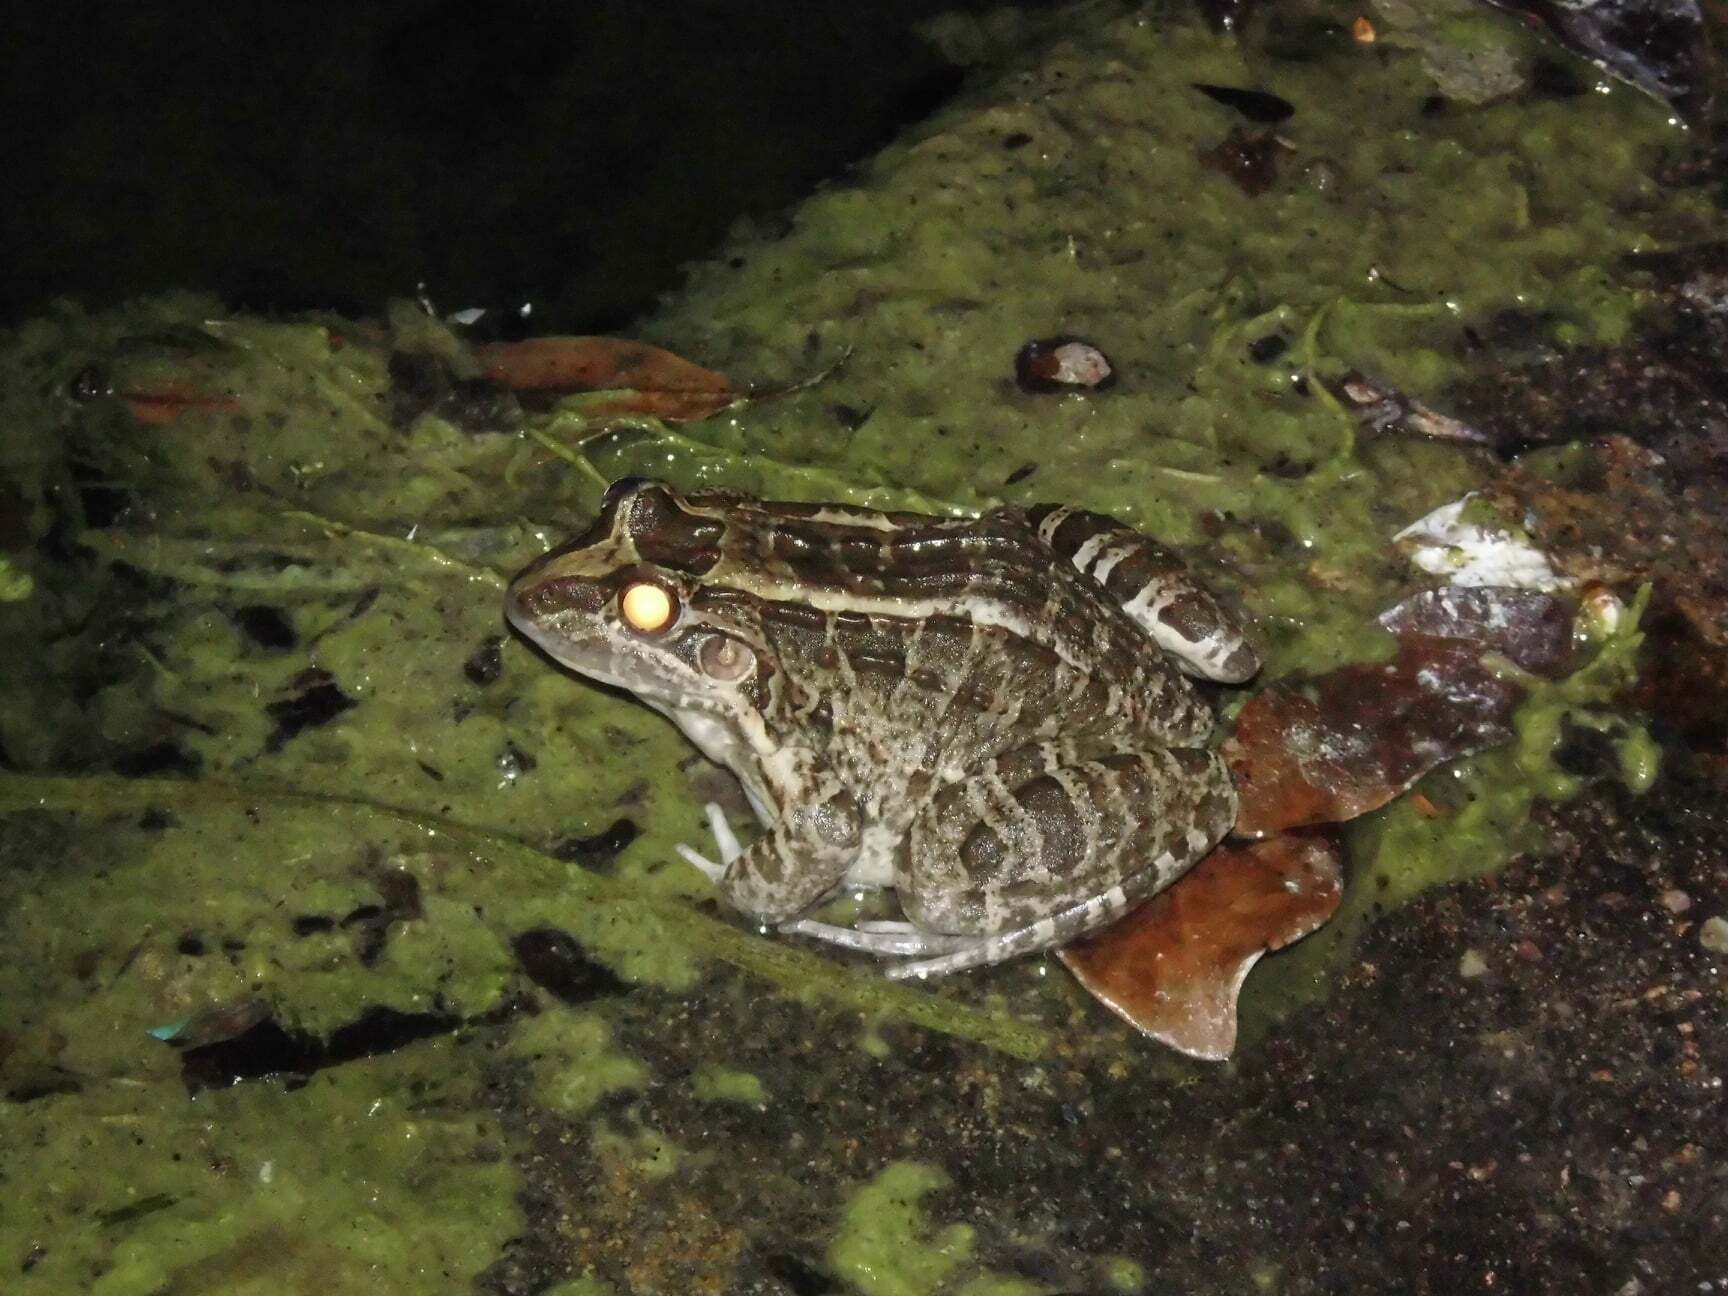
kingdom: Animalia
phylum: Chordata
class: Amphibia
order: Anura
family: Leptodactylidae
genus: Leptodactylus
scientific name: Leptodactylus macrosternum
